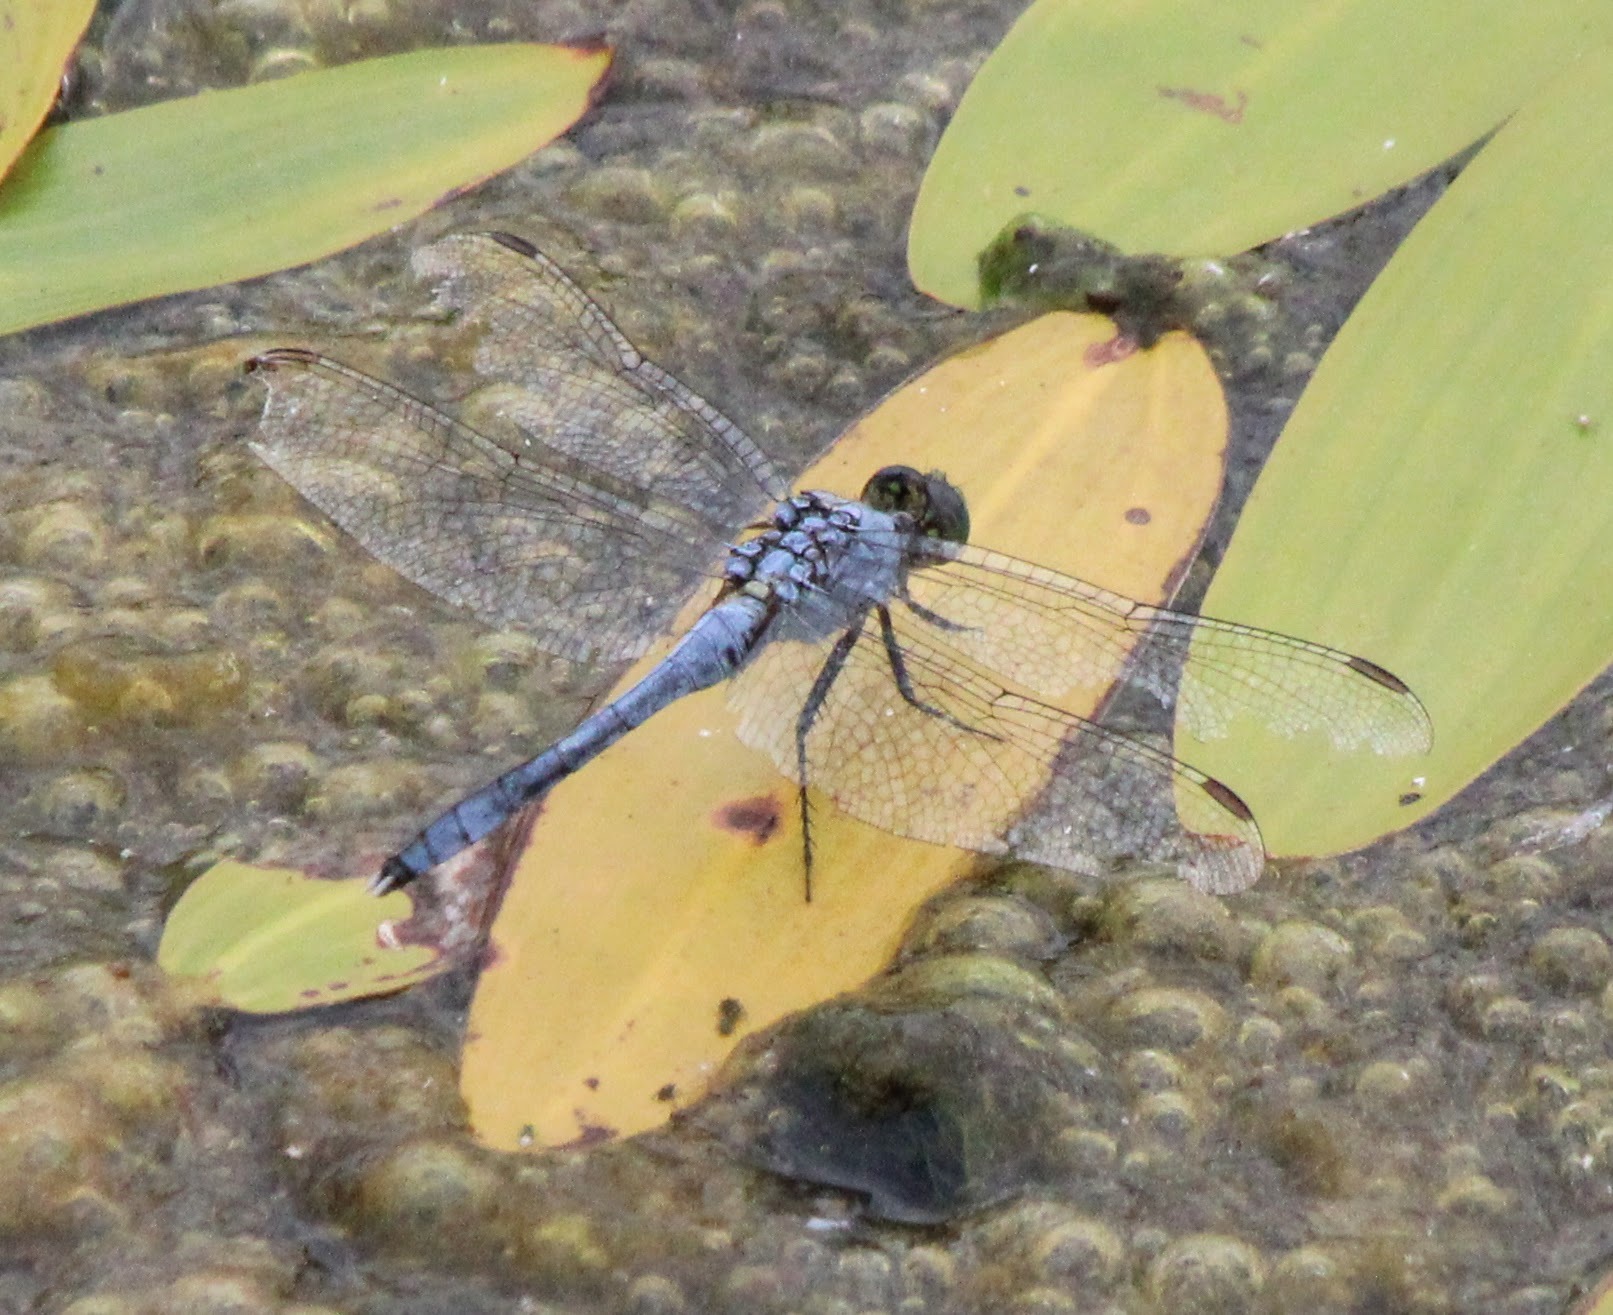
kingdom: Animalia
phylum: Arthropoda
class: Insecta
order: Odonata
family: Libellulidae
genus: Erythemis
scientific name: Erythemis simplicicollis
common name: Eastern pondhawk
